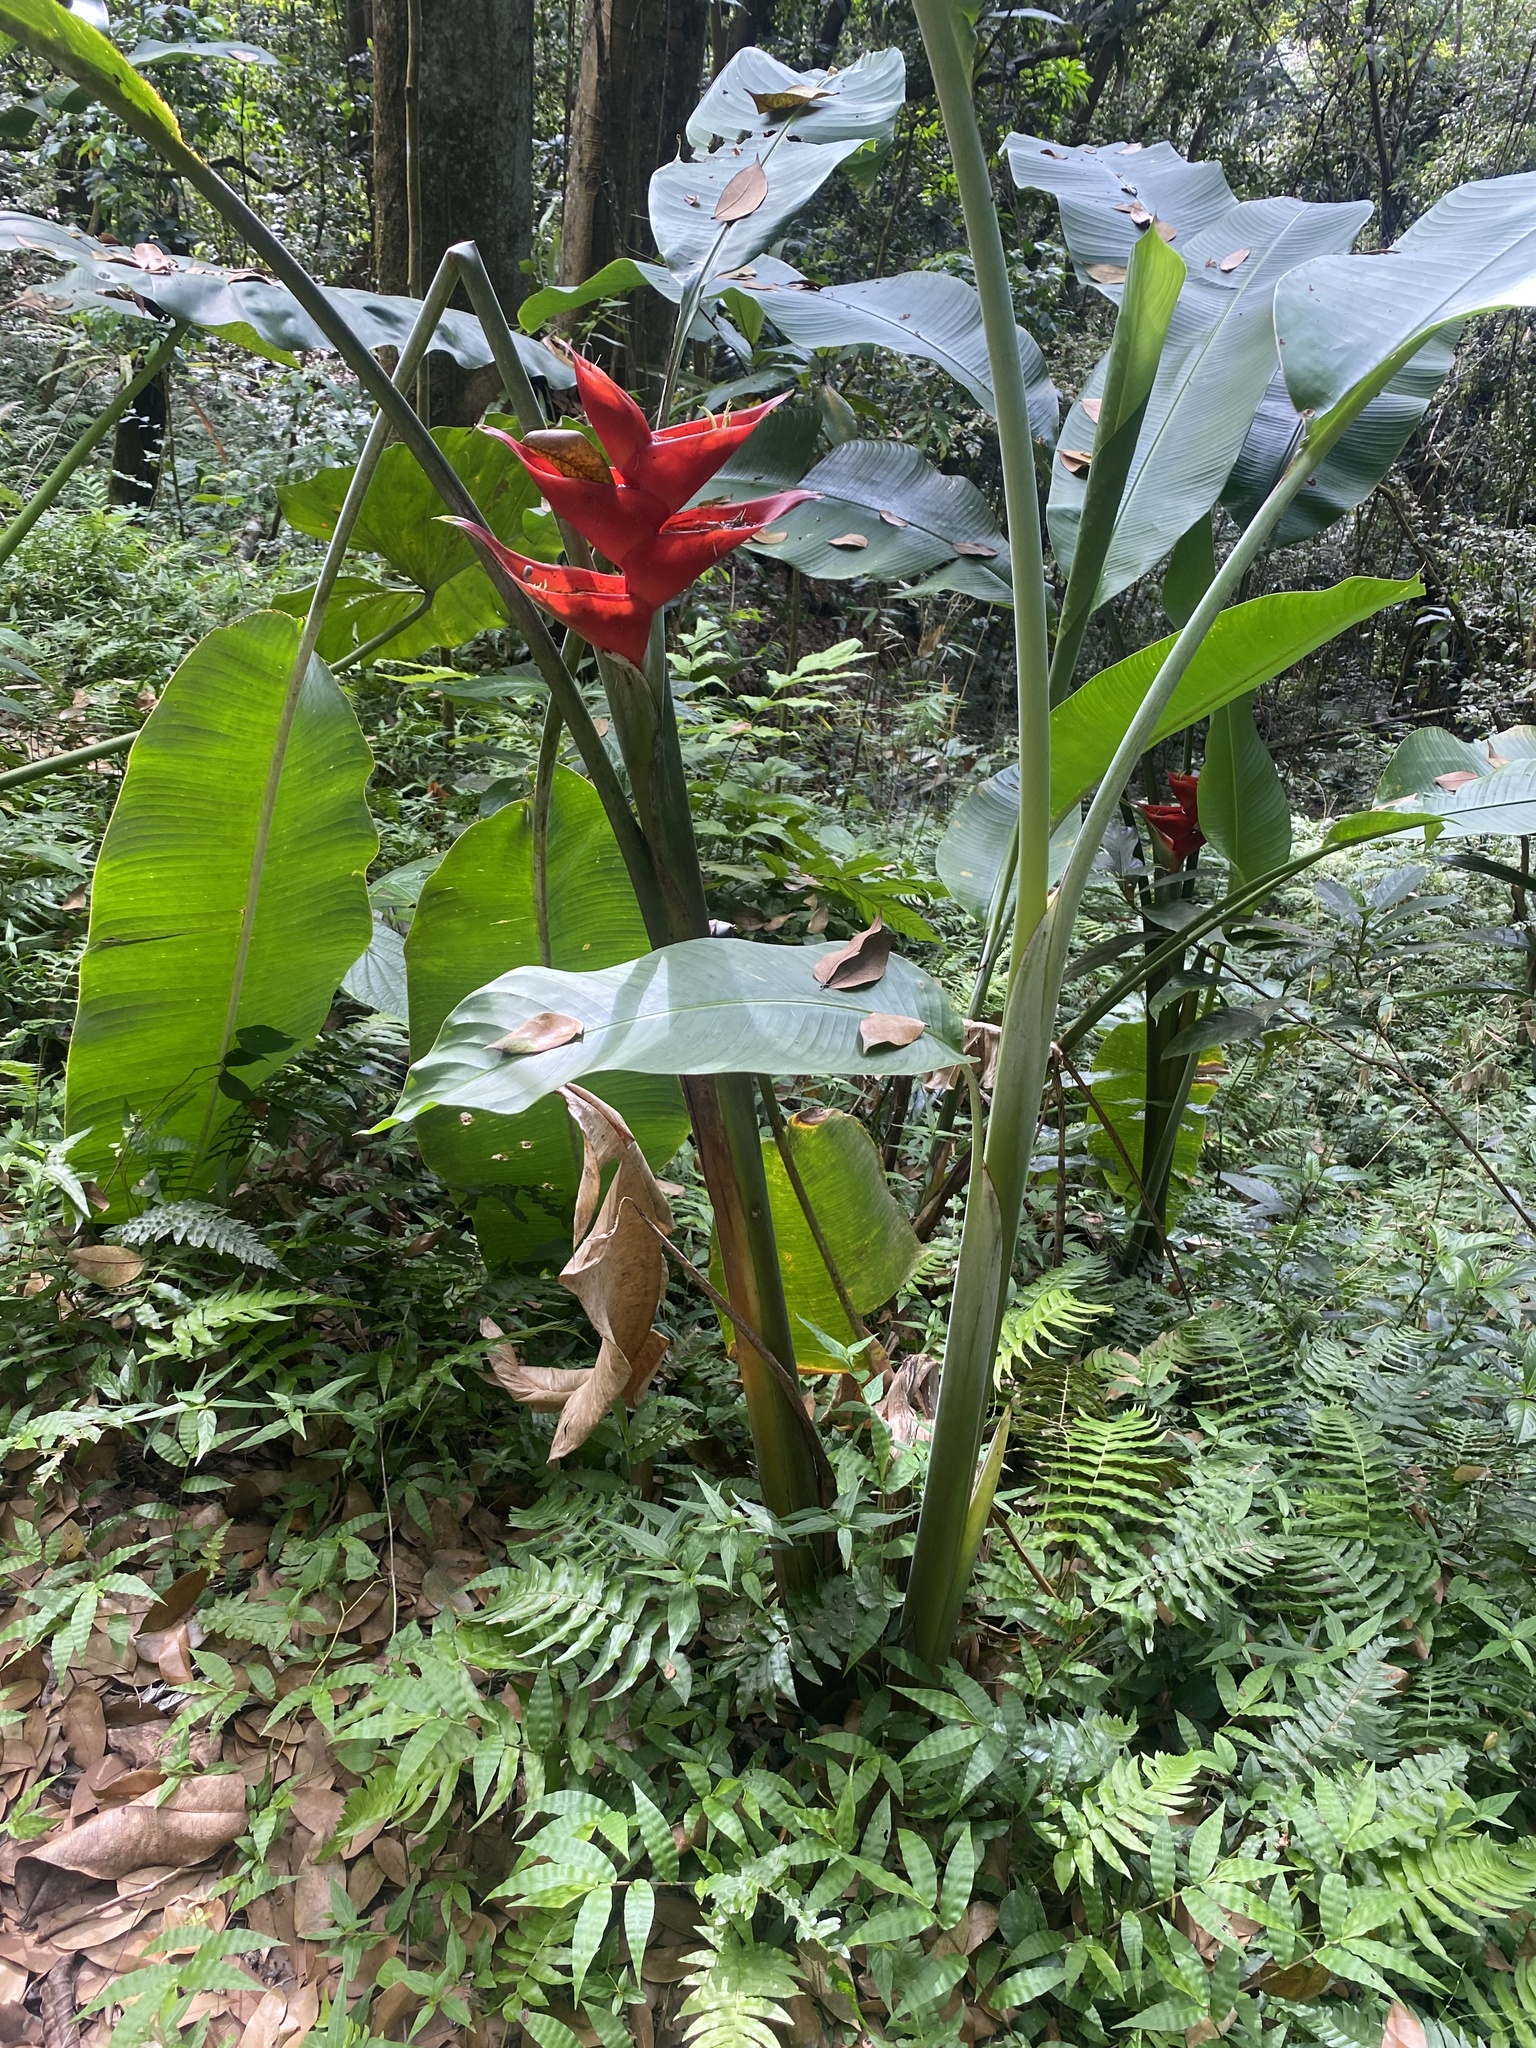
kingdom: Plantae
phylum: Tracheophyta
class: Liliopsida
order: Zingiberales
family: Heliconiaceae
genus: Heliconia
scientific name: Heliconia bihai
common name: Macaw flower
